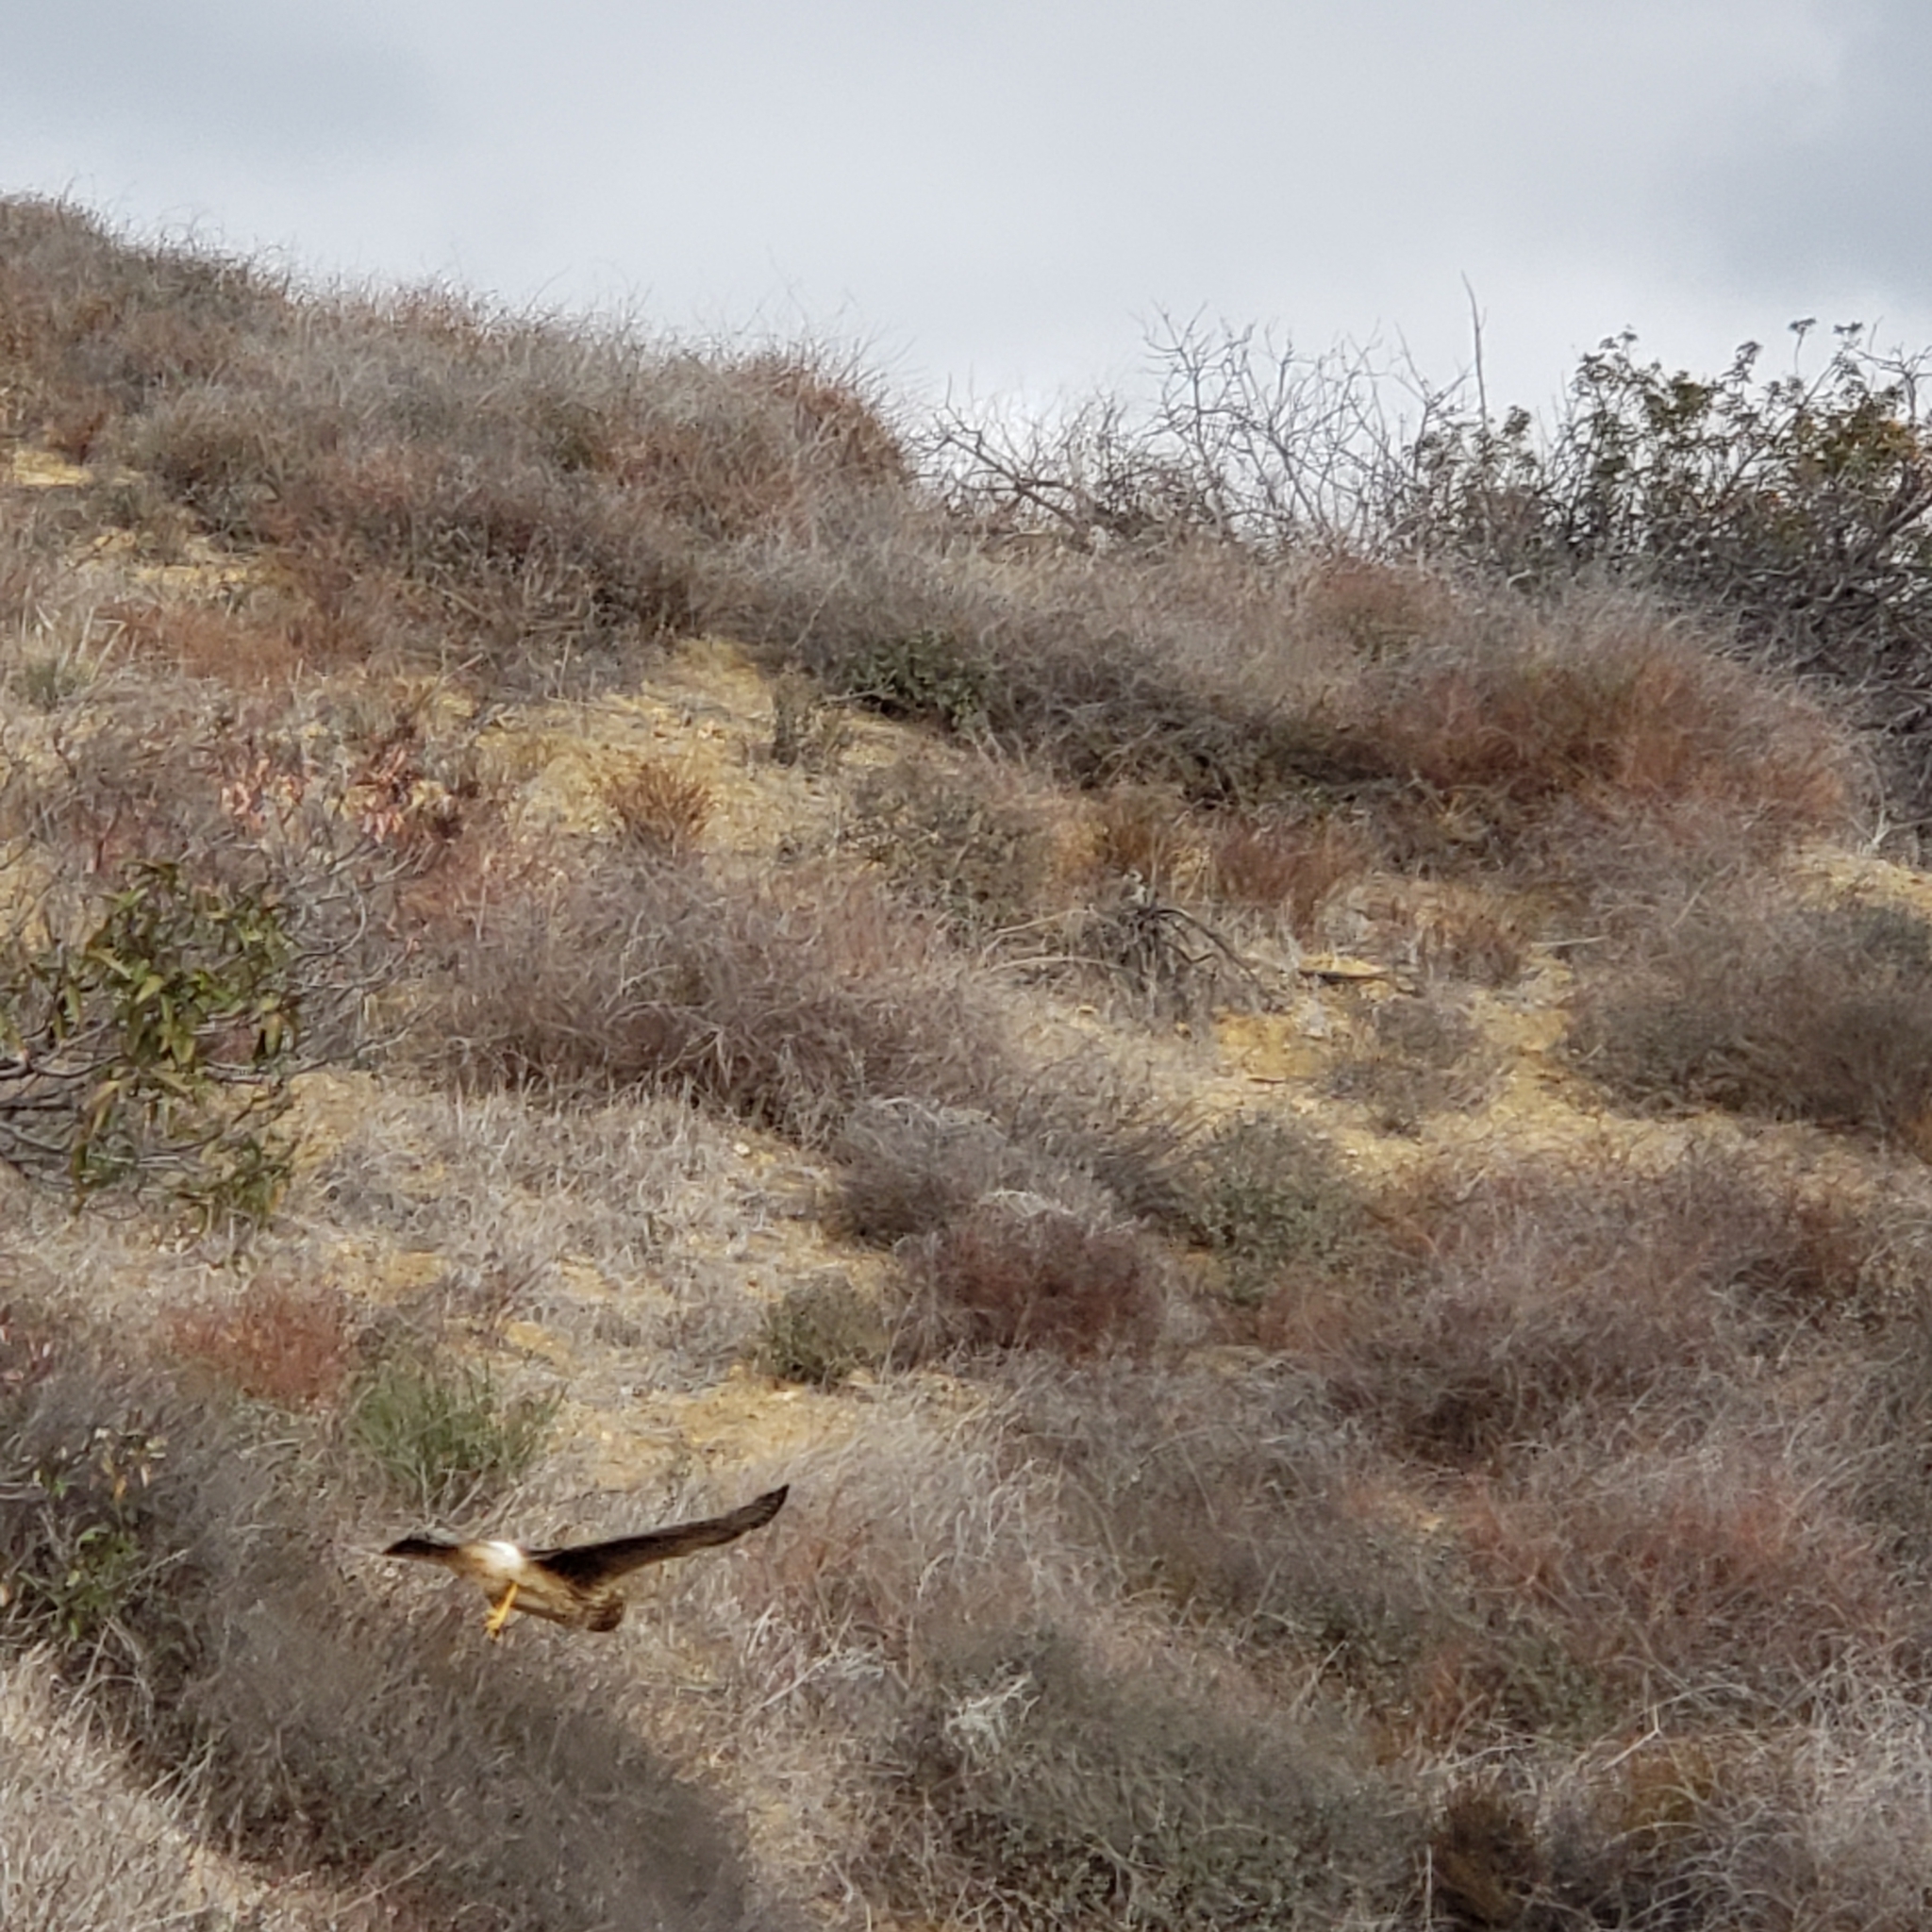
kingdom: Animalia
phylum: Chordata
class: Aves
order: Accipitriformes
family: Accipitridae
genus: Circus
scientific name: Circus cyaneus
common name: Hen harrier
